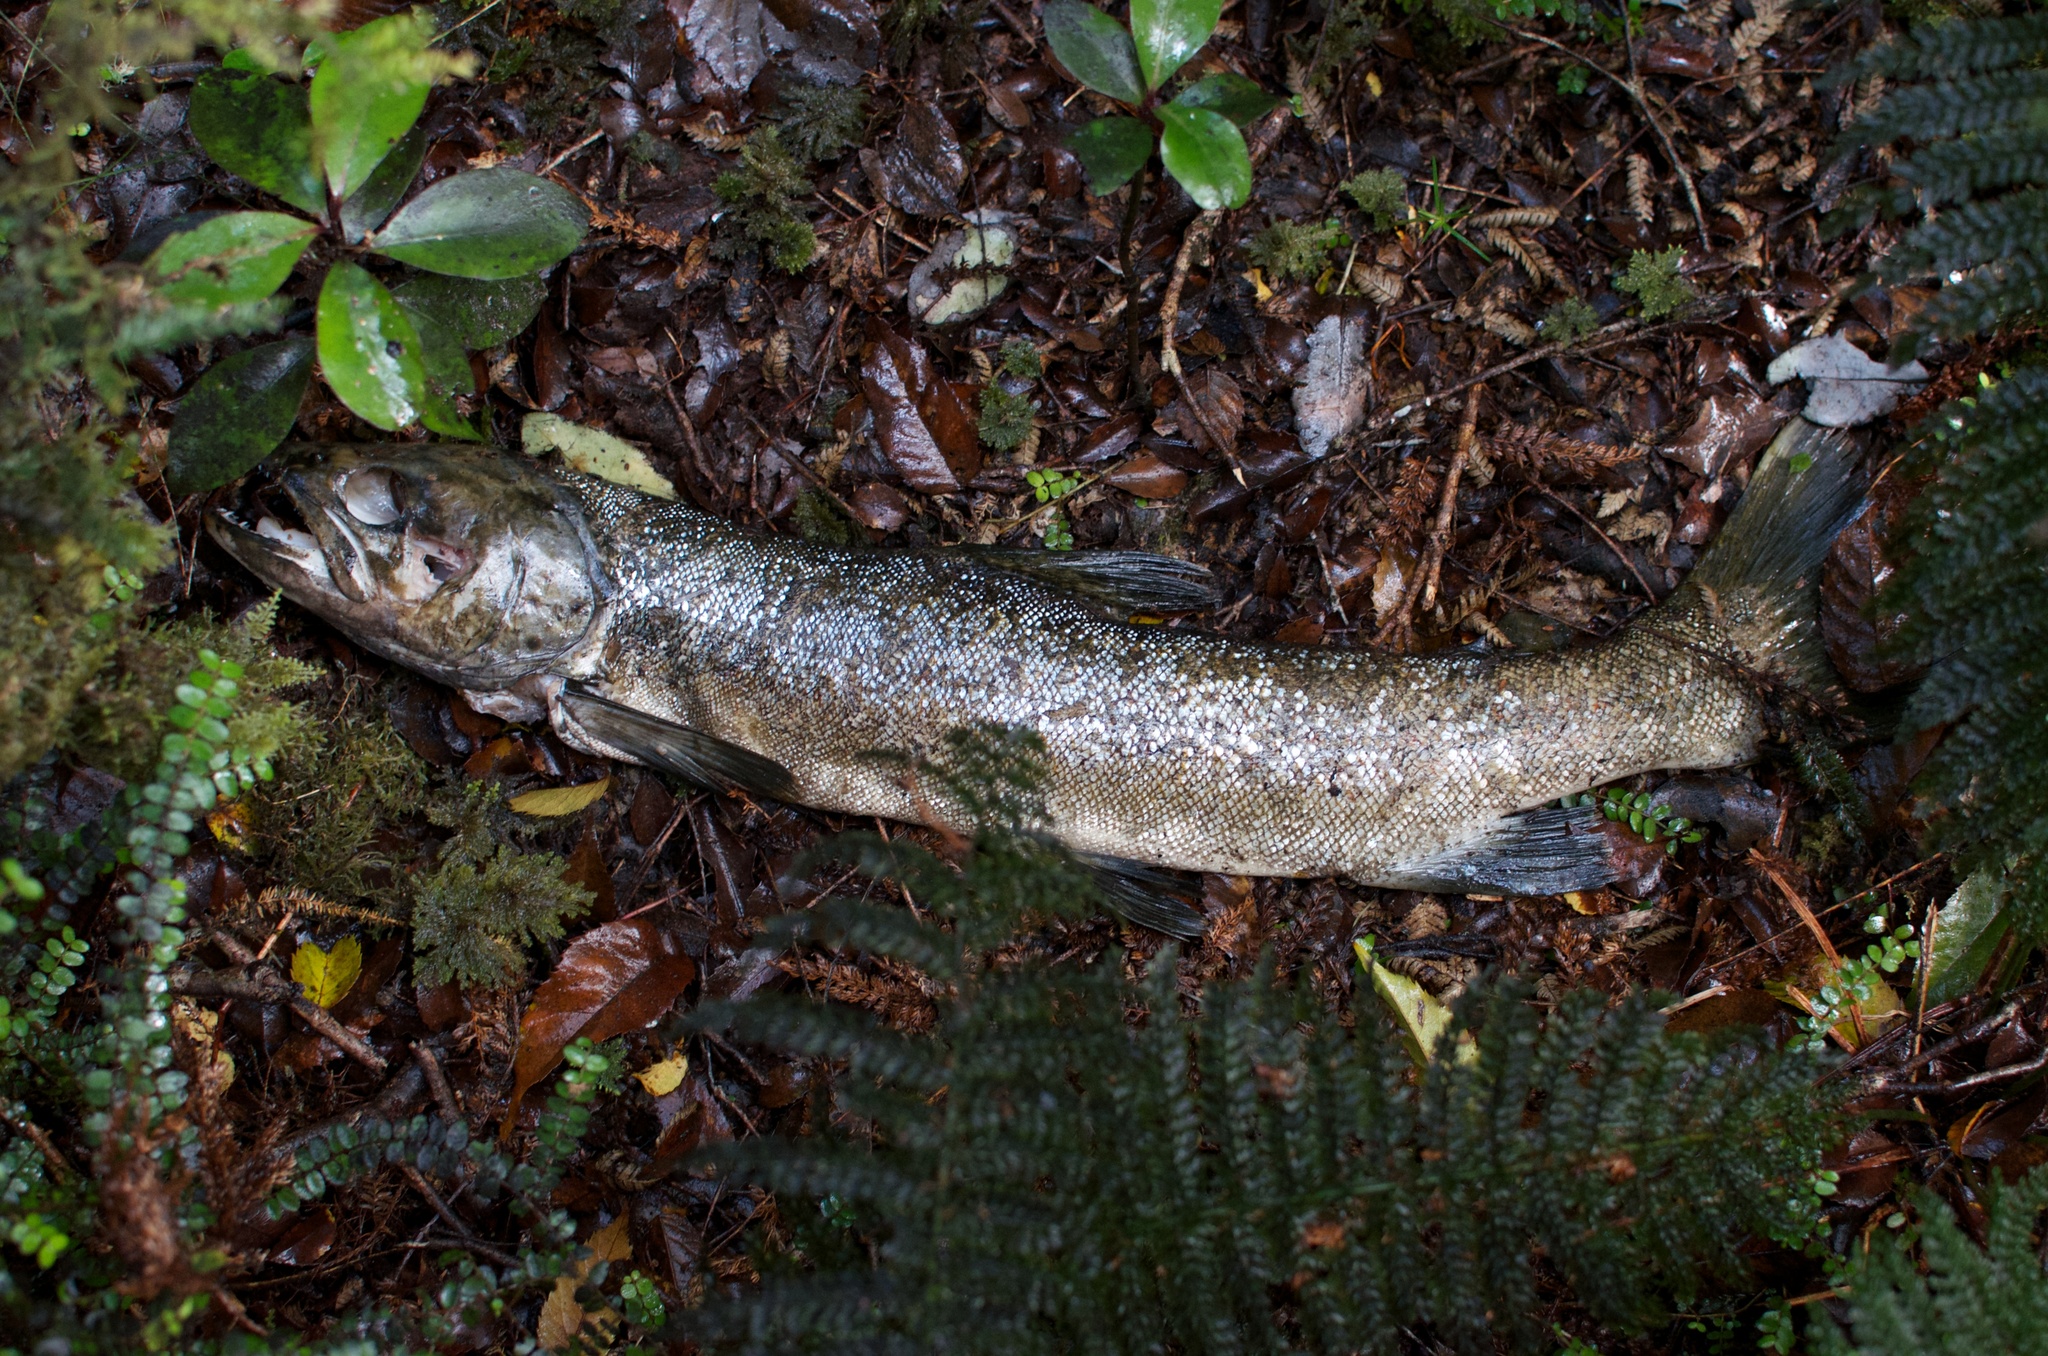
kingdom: Animalia
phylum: Chordata
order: Salmoniformes
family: Salmonidae
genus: Salmo
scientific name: Salmo trutta
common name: Brown trout
